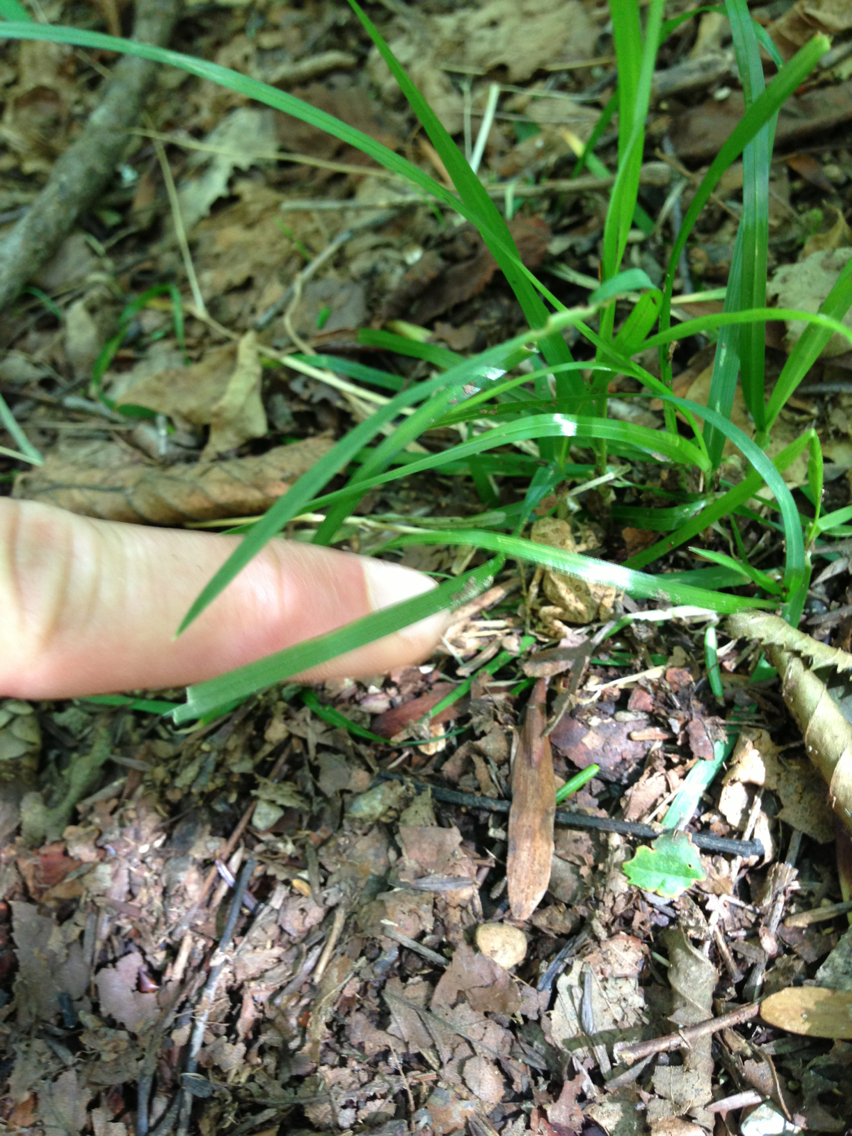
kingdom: Animalia
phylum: Chordata
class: Amphibia
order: Anura
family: Bufonidae
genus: Anaxyrus
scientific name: Anaxyrus americanus
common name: American toad
